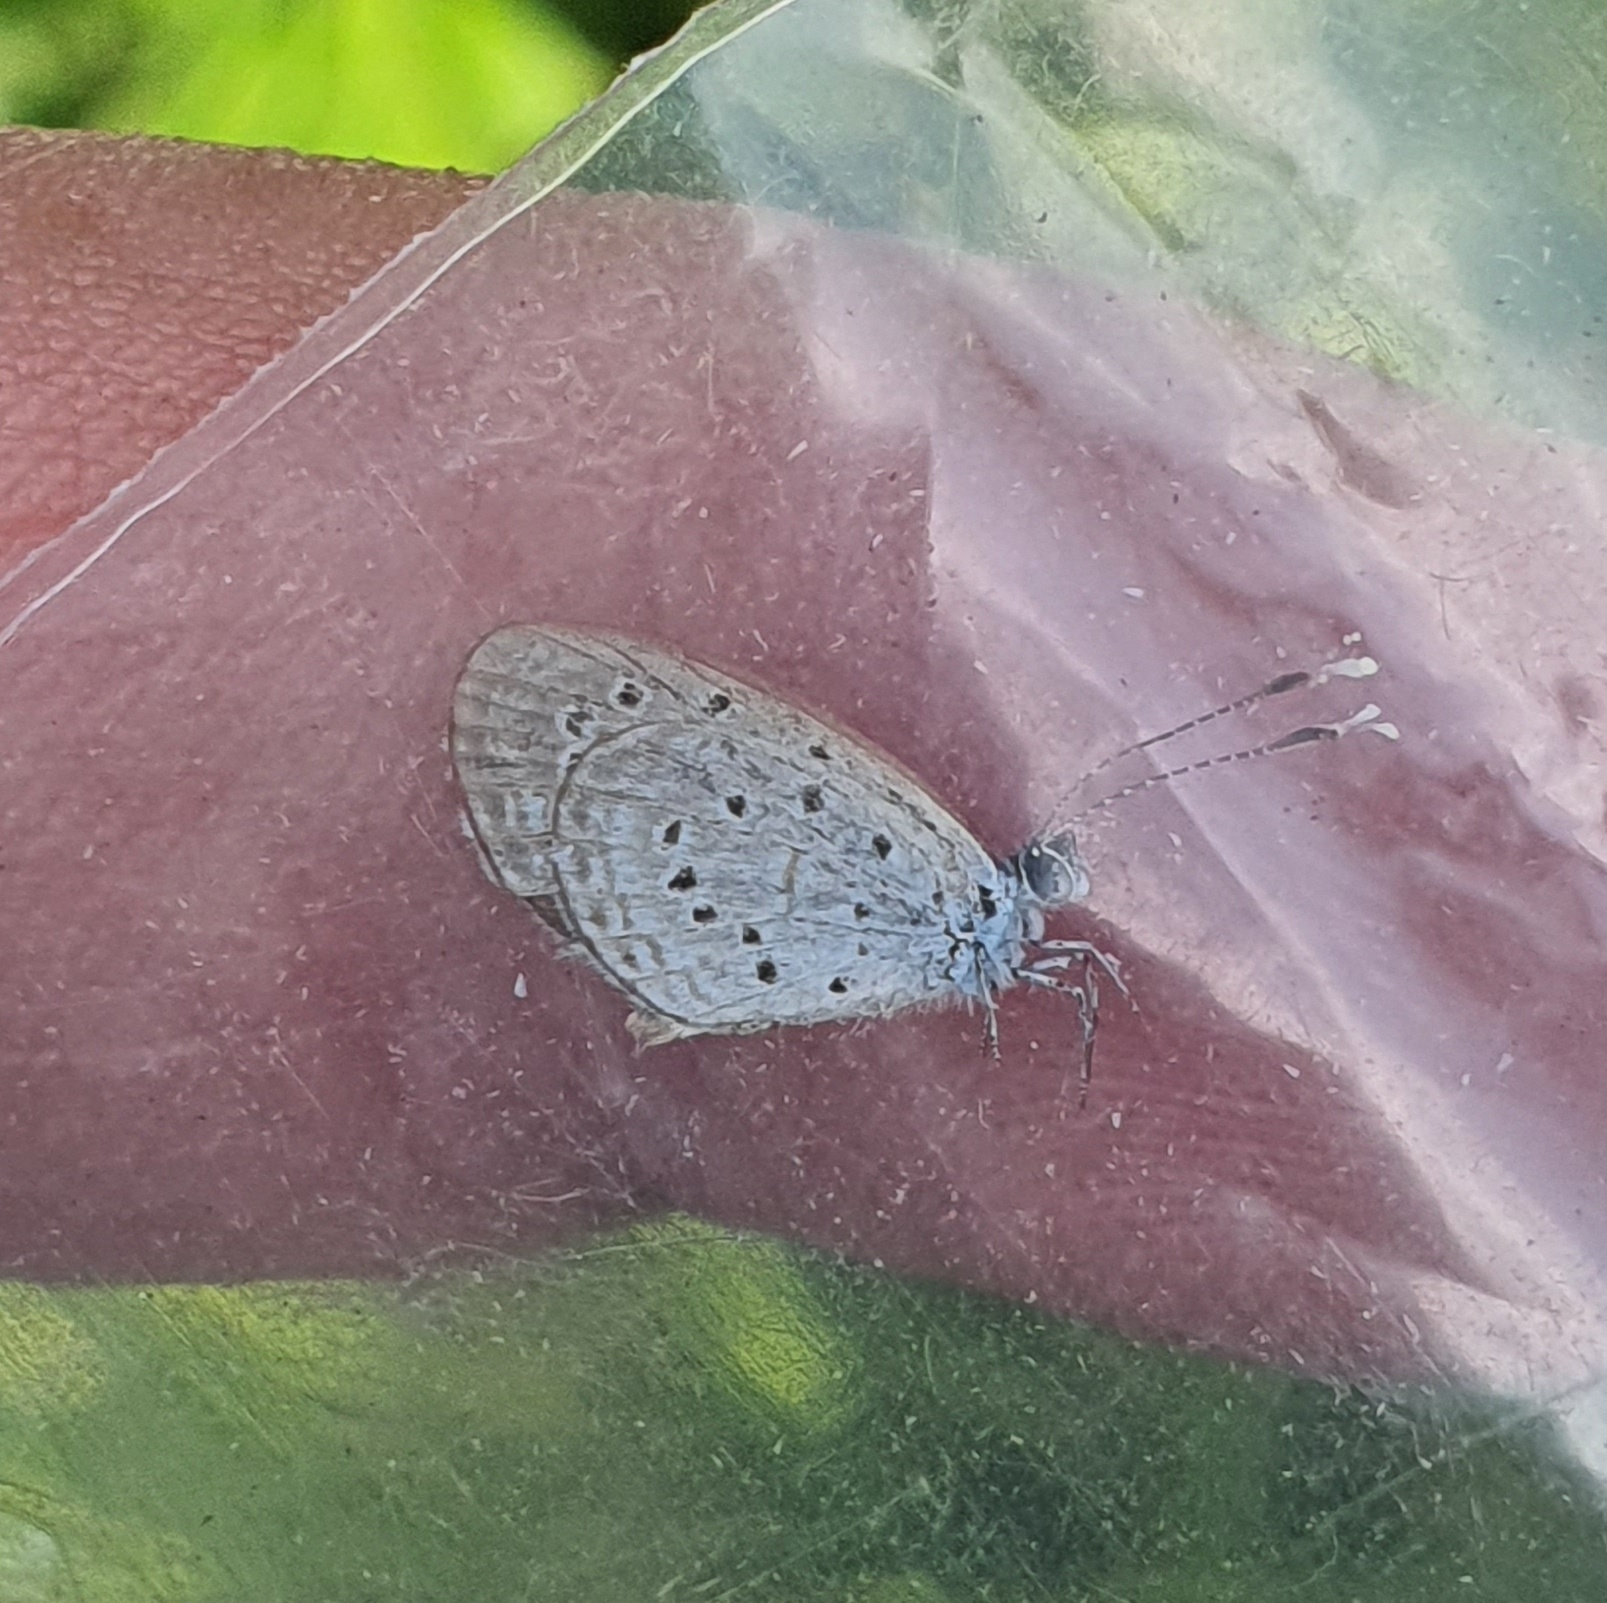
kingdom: Animalia
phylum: Arthropoda
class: Insecta
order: Lepidoptera
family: Lycaenidae
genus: Zizula
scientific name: Zizula hylax
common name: Gaika blue
